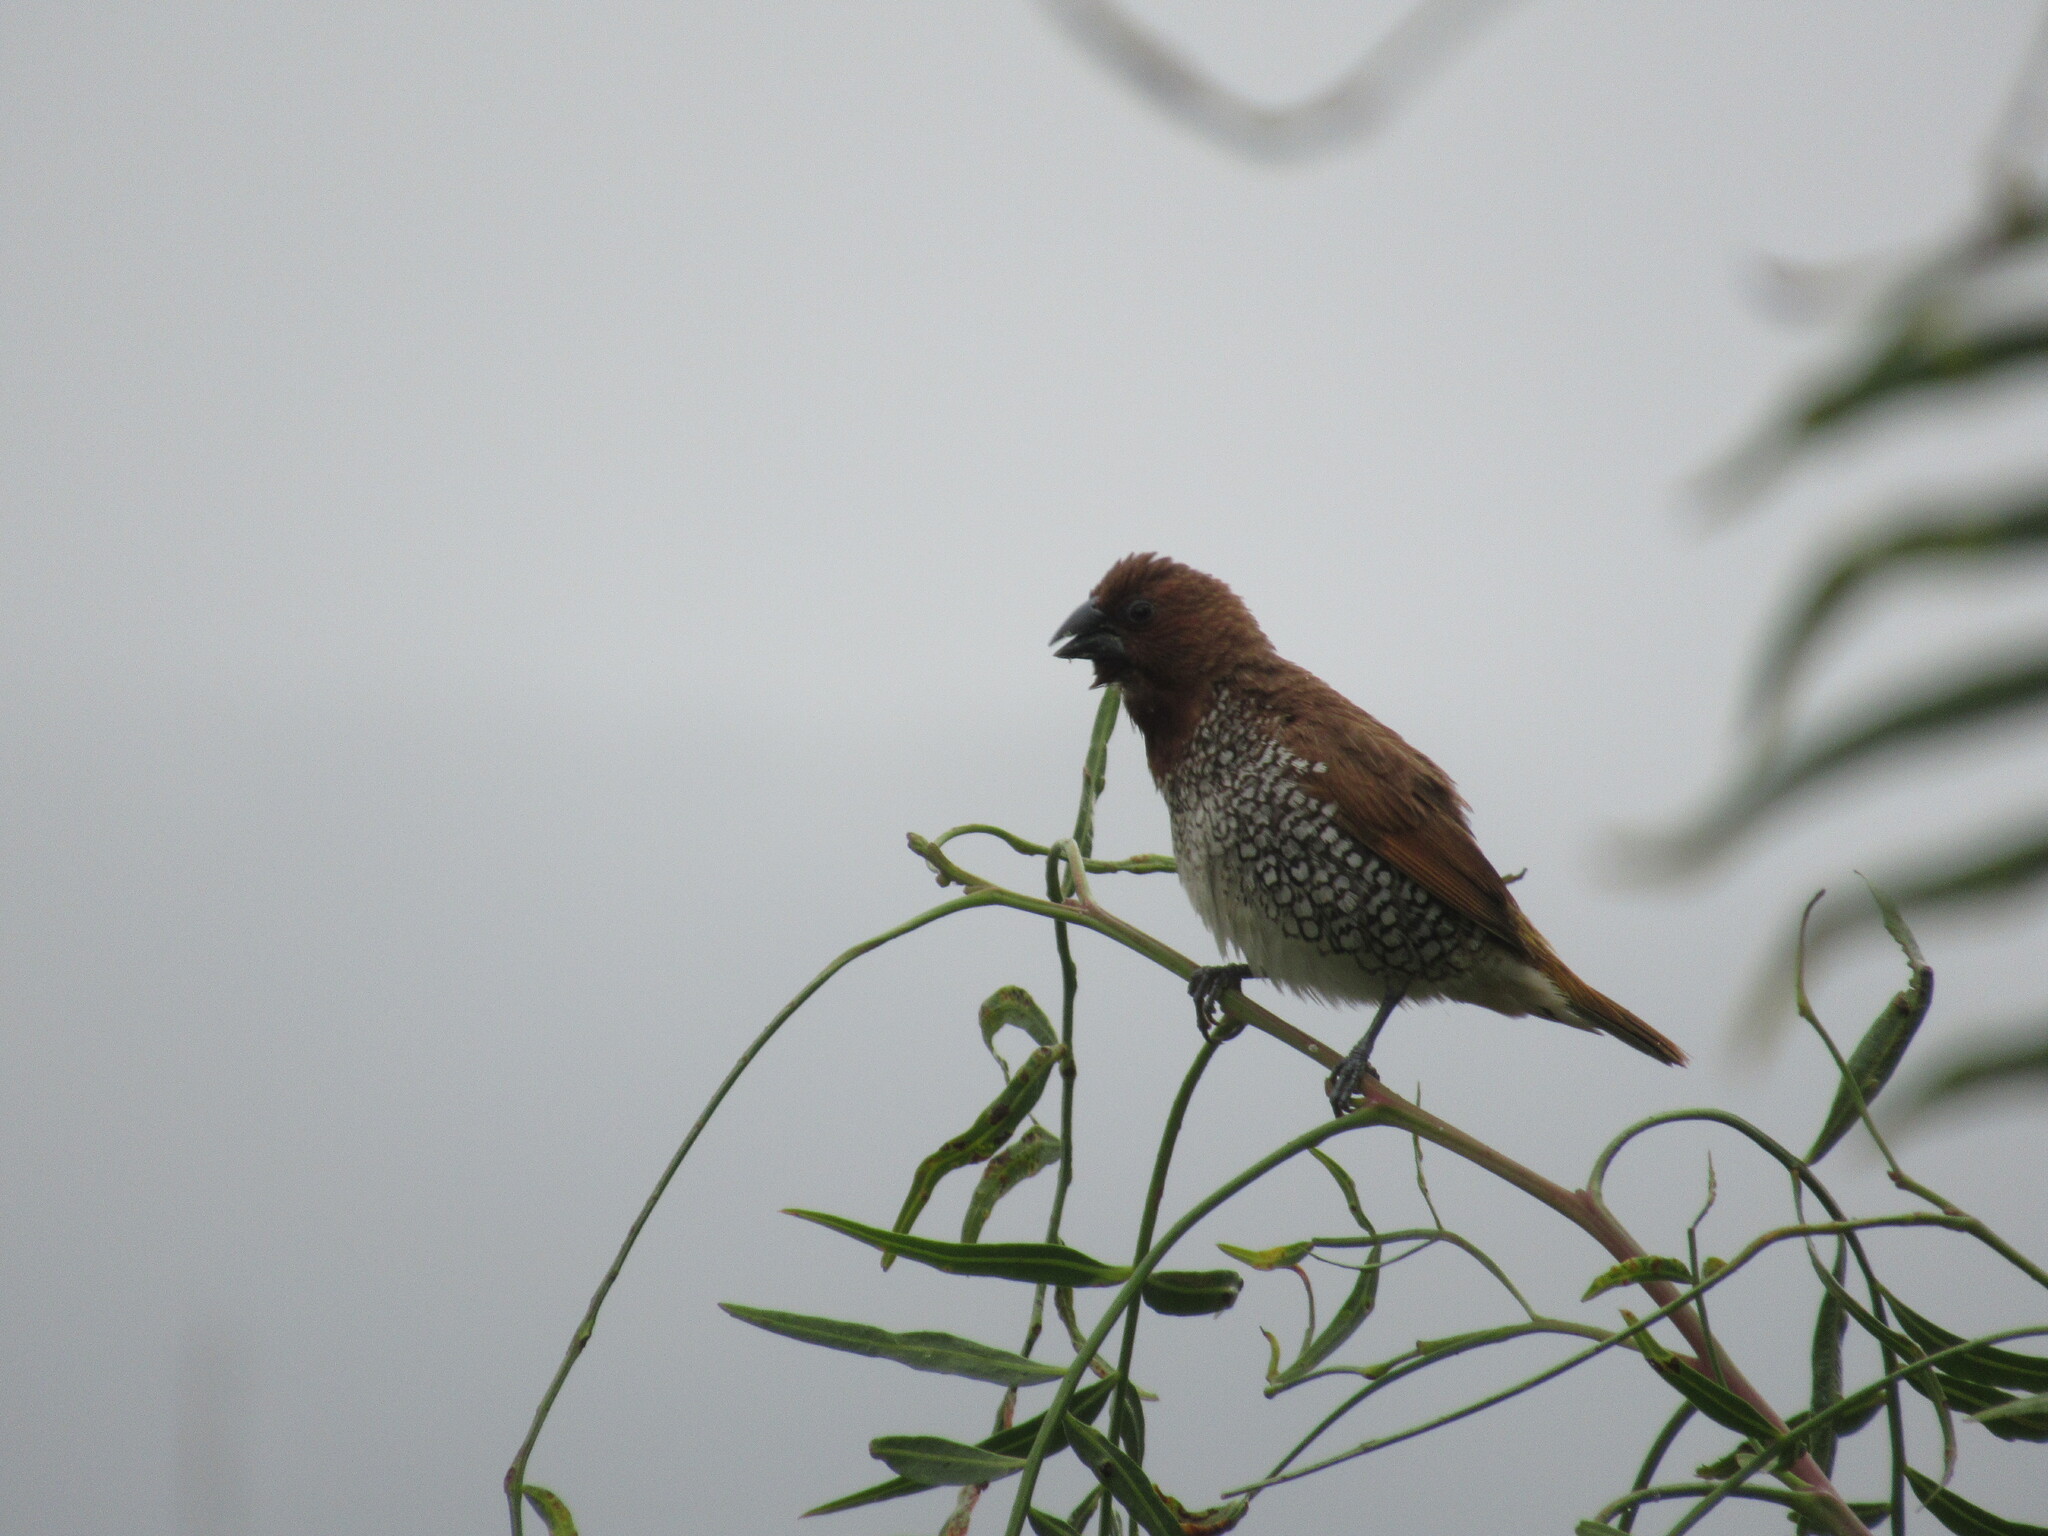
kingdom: Animalia
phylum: Chordata
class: Aves
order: Passeriformes
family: Estrildidae
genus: Lonchura
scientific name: Lonchura punctulata
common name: Scaly-breasted munia
